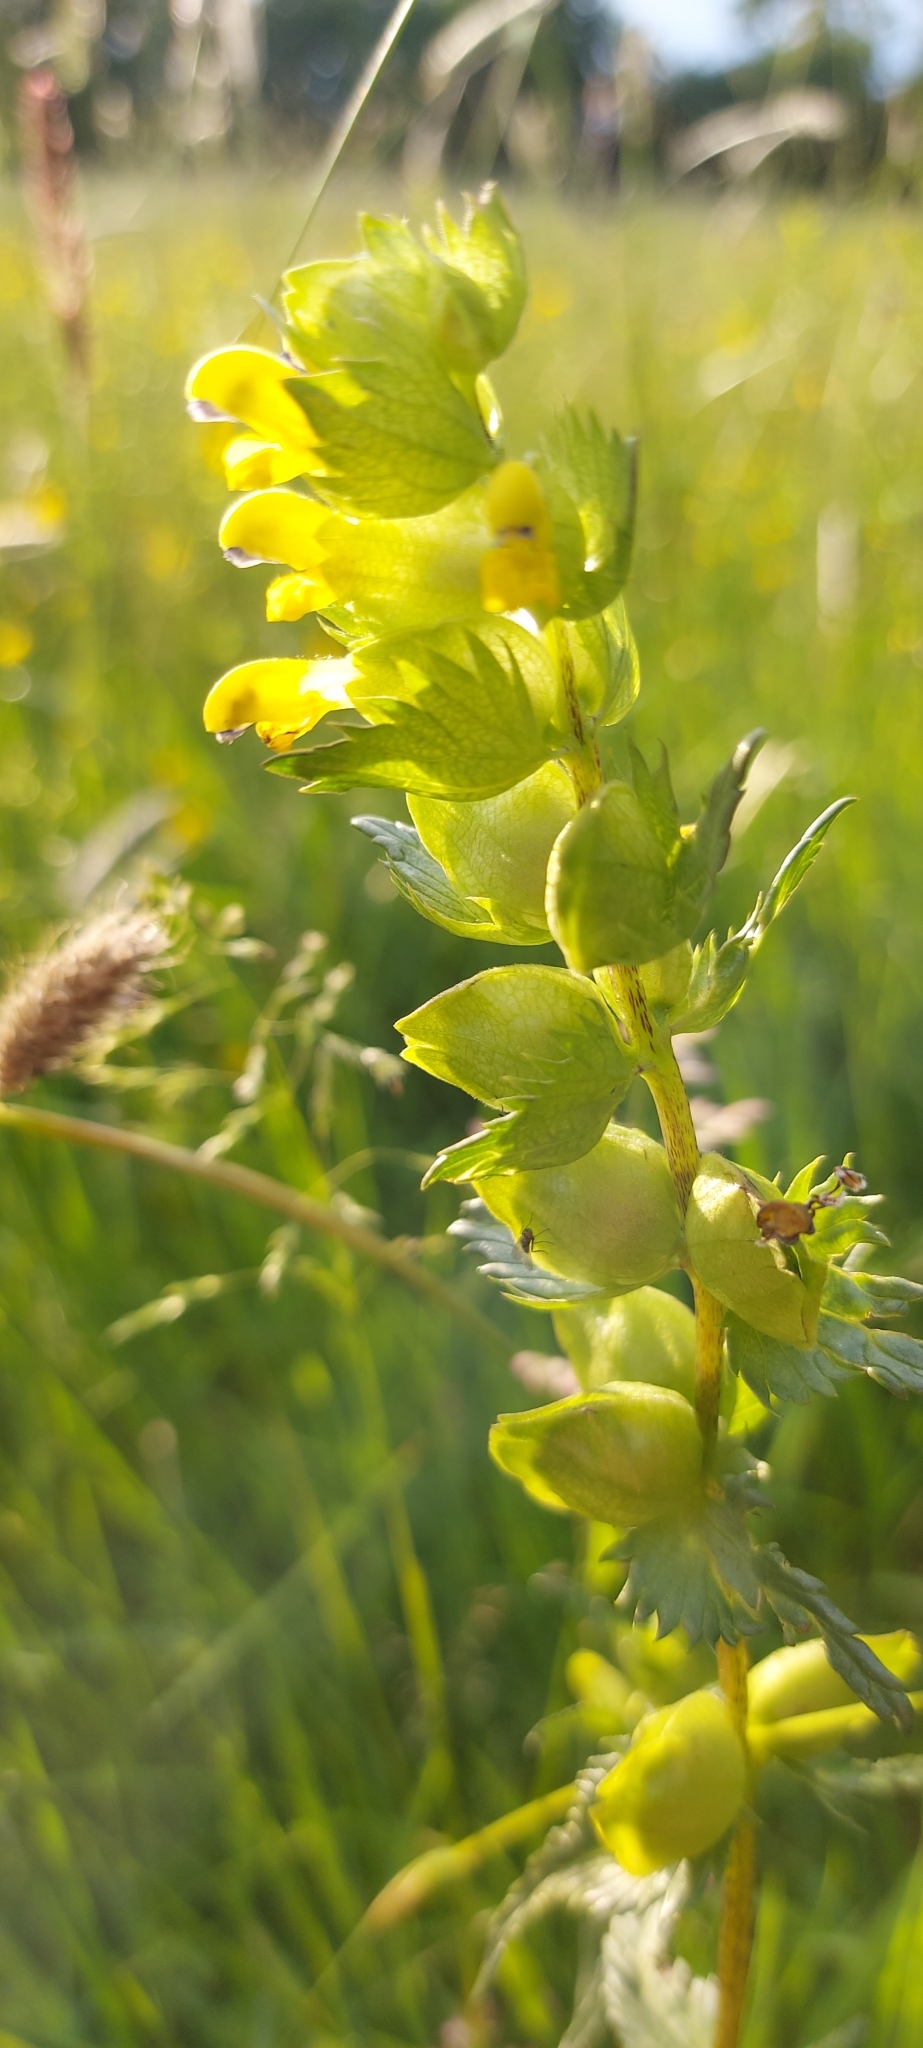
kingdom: Plantae
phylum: Tracheophyta
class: Magnoliopsida
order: Lamiales
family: Orobanchaceae
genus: Rhinanthus
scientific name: Rhinanthus minor
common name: Yellow-rattle
